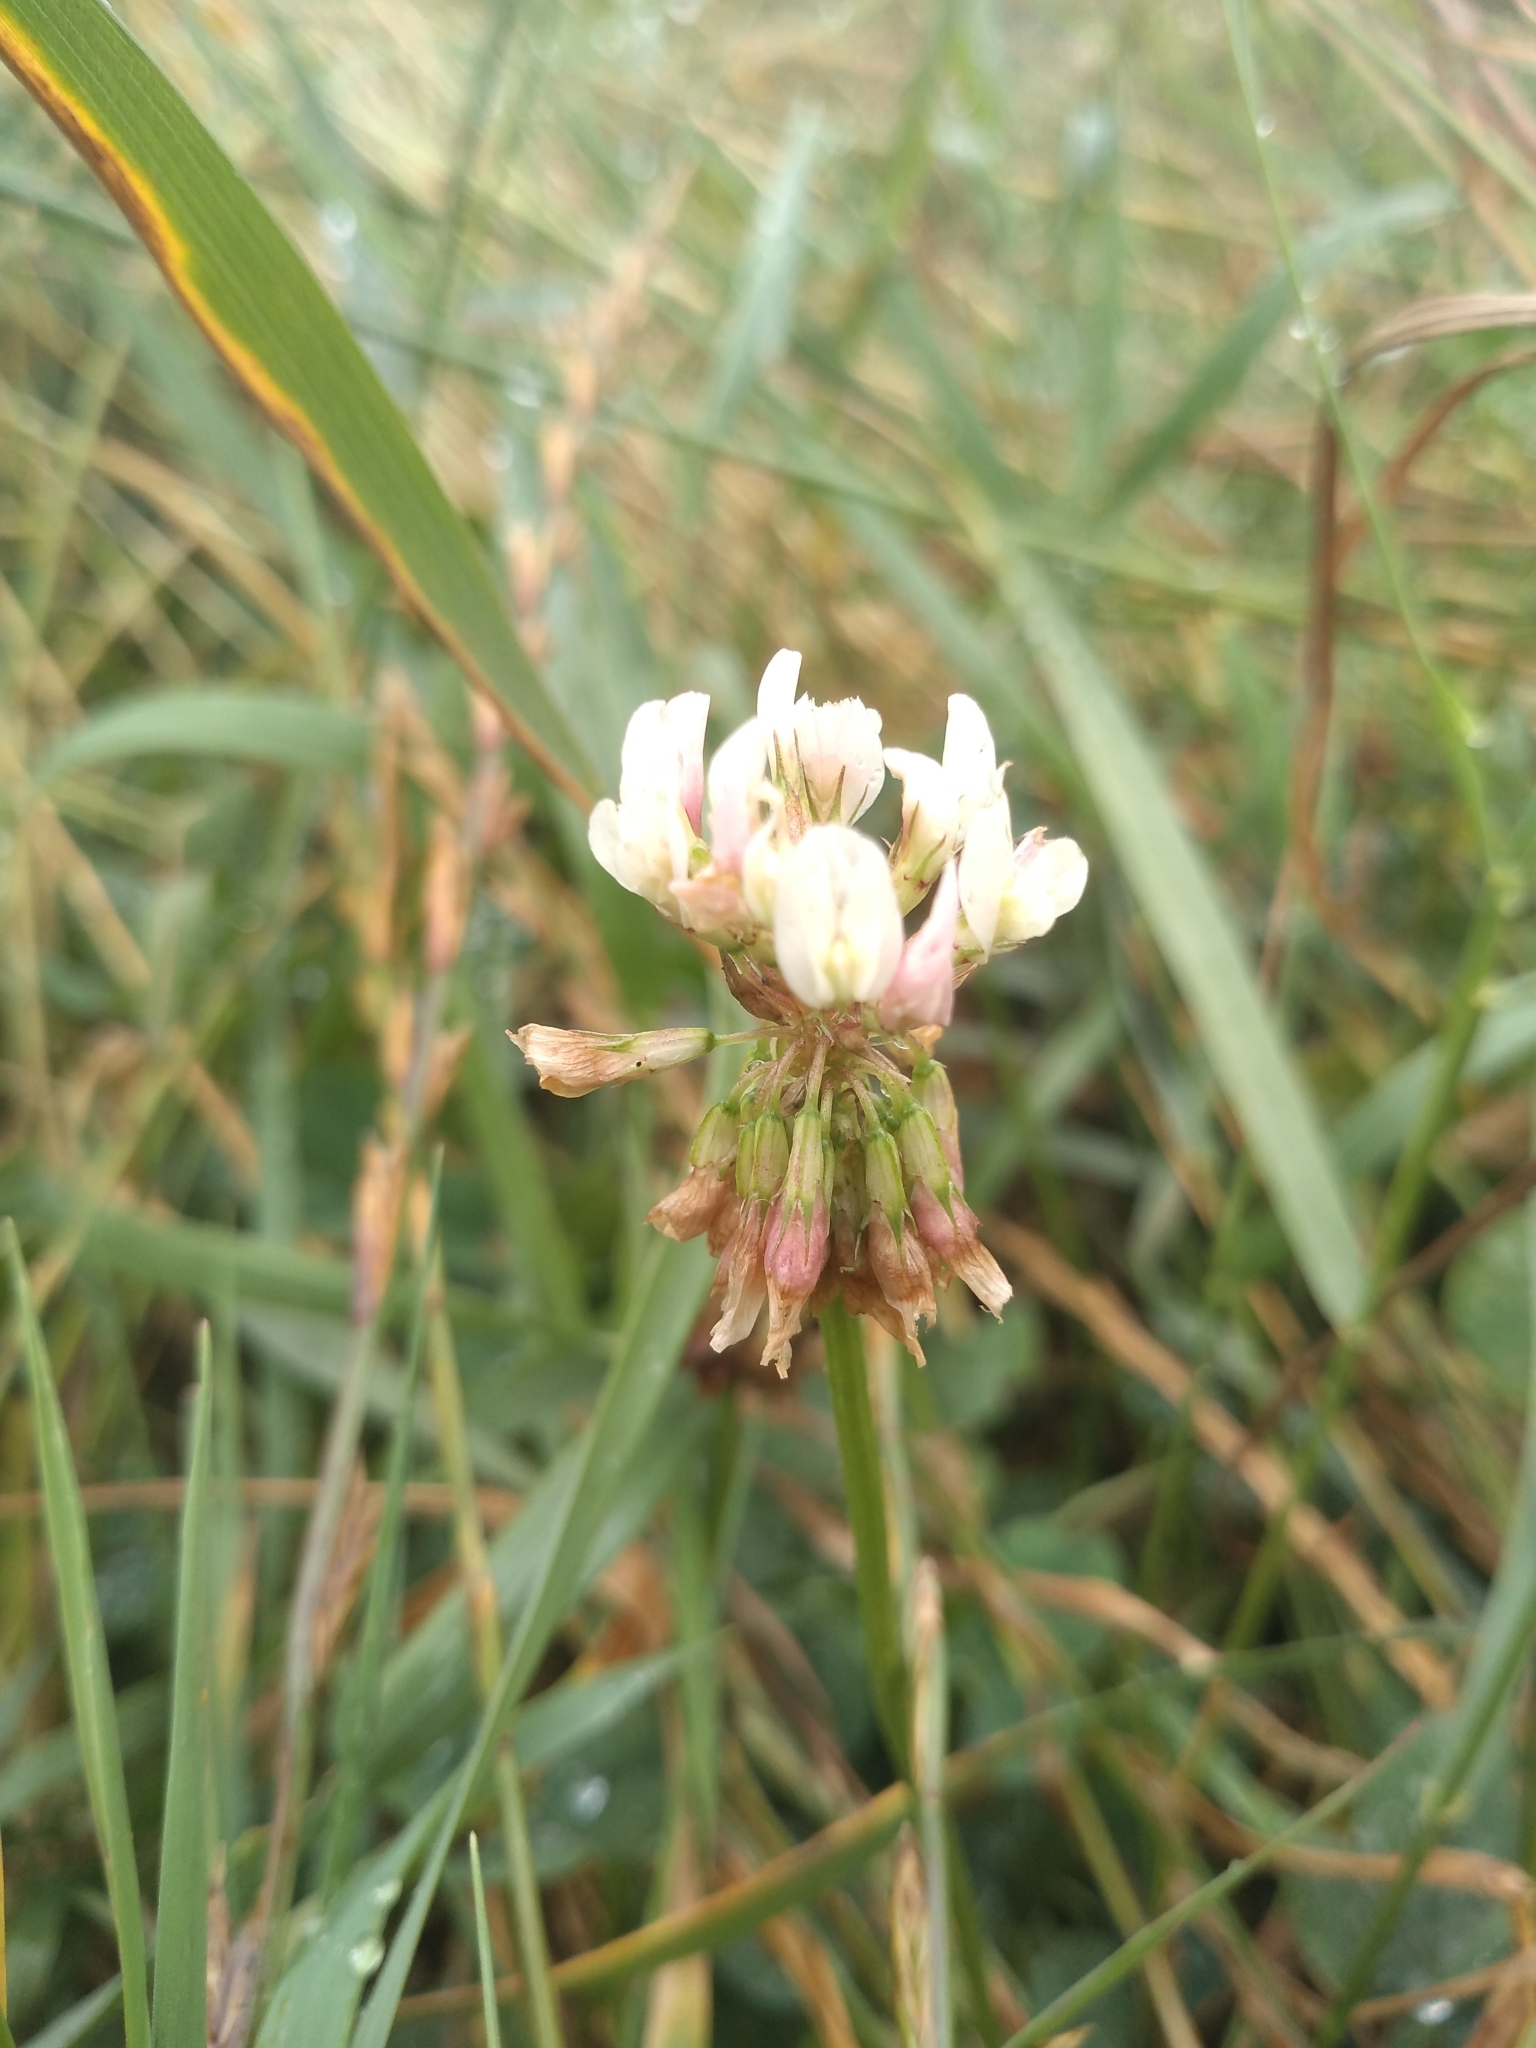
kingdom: Plantae
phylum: Tracheophyta
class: Magnoliopsida
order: Fabales
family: Fabaceae
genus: Trifolium
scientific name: Trifolium repens
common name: White clover
